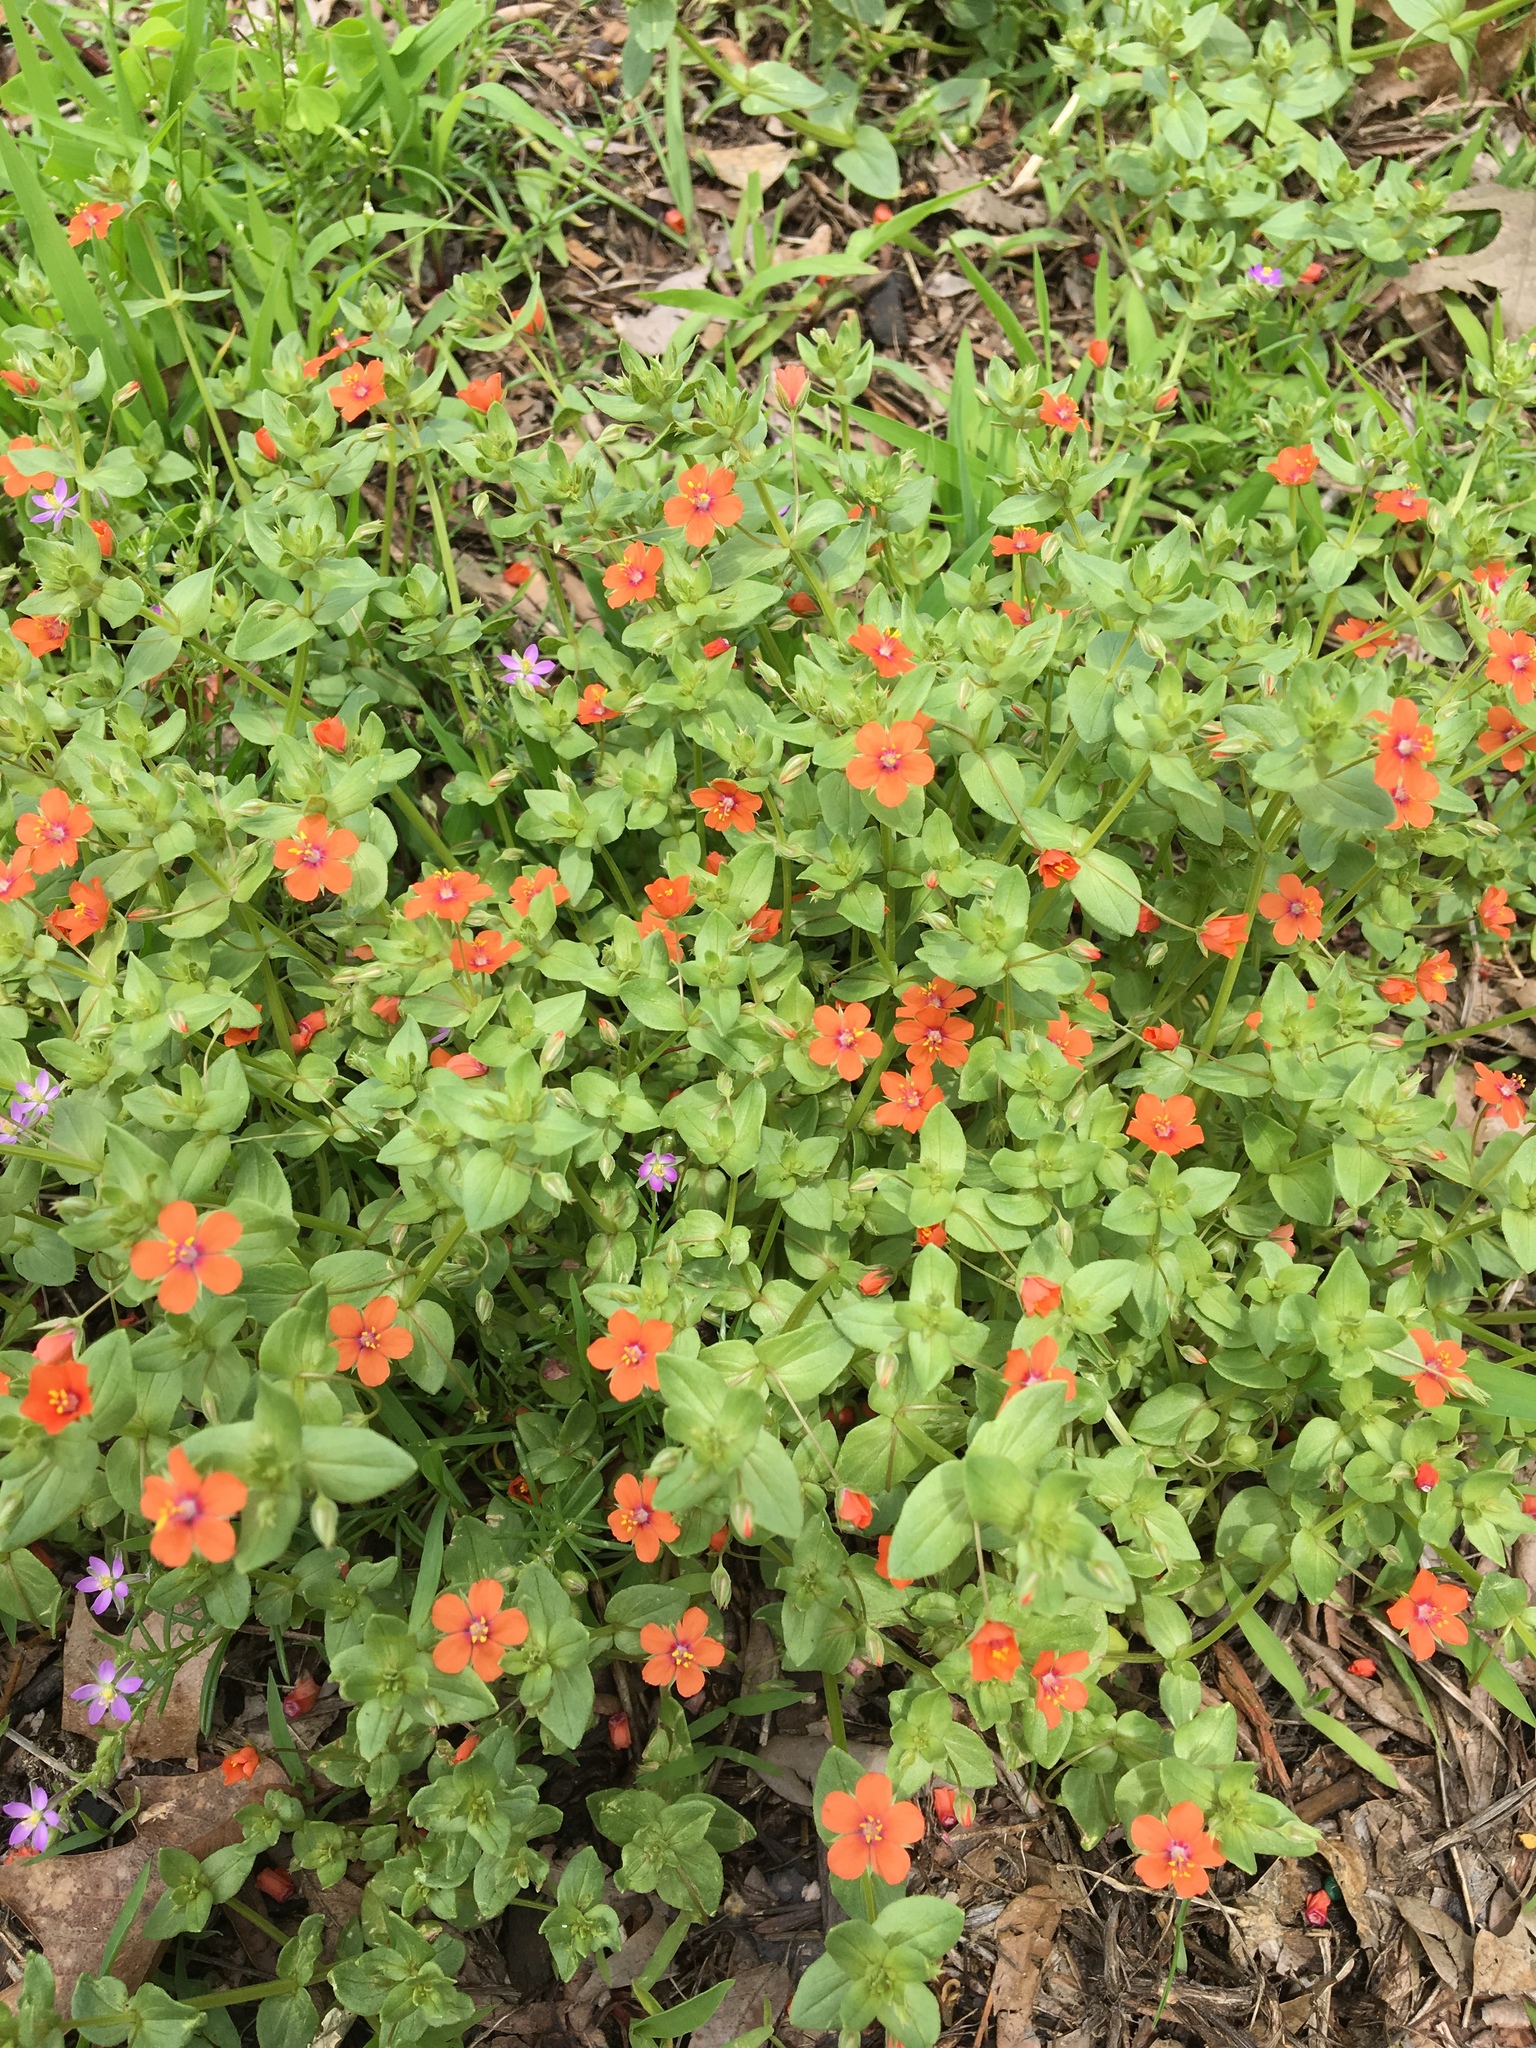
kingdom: Plantae
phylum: Tracheophyta
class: Magnoliopsida
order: Ericales
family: Primulaceae
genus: Lysimachia
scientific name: Lysimachia arvensis
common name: Scarlet pimpernel
